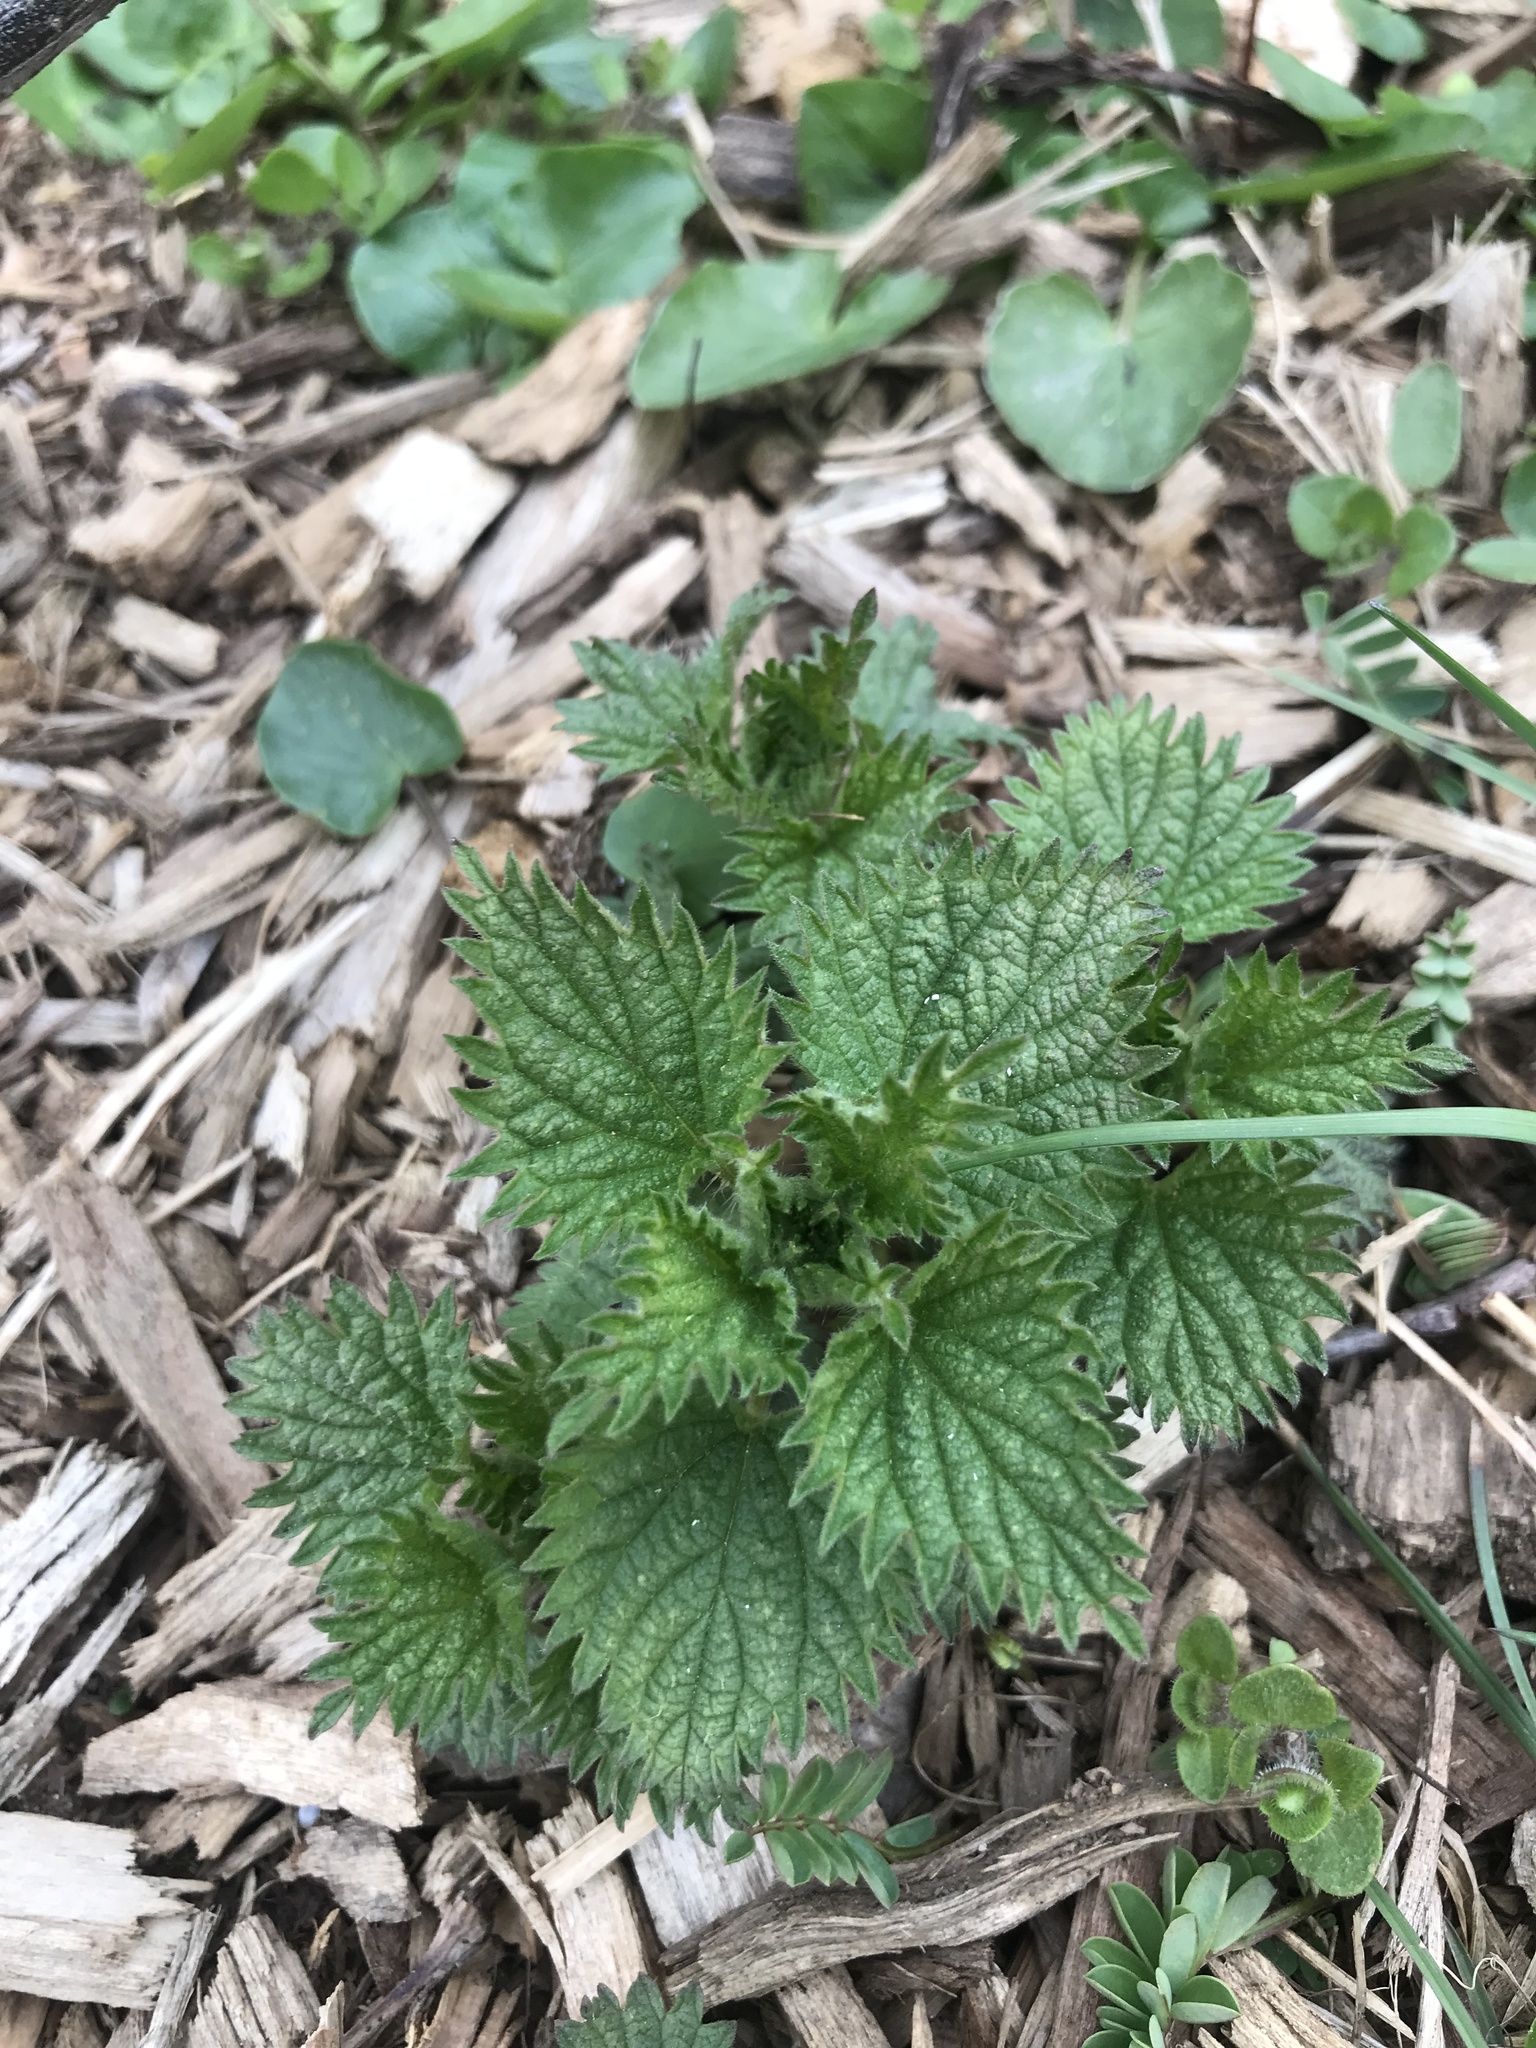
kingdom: Plantae
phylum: Tracheophyta
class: Magnoliopsida
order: Rosales
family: Urticaceae
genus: Urtica
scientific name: Urtica dioica
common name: Common nettle
